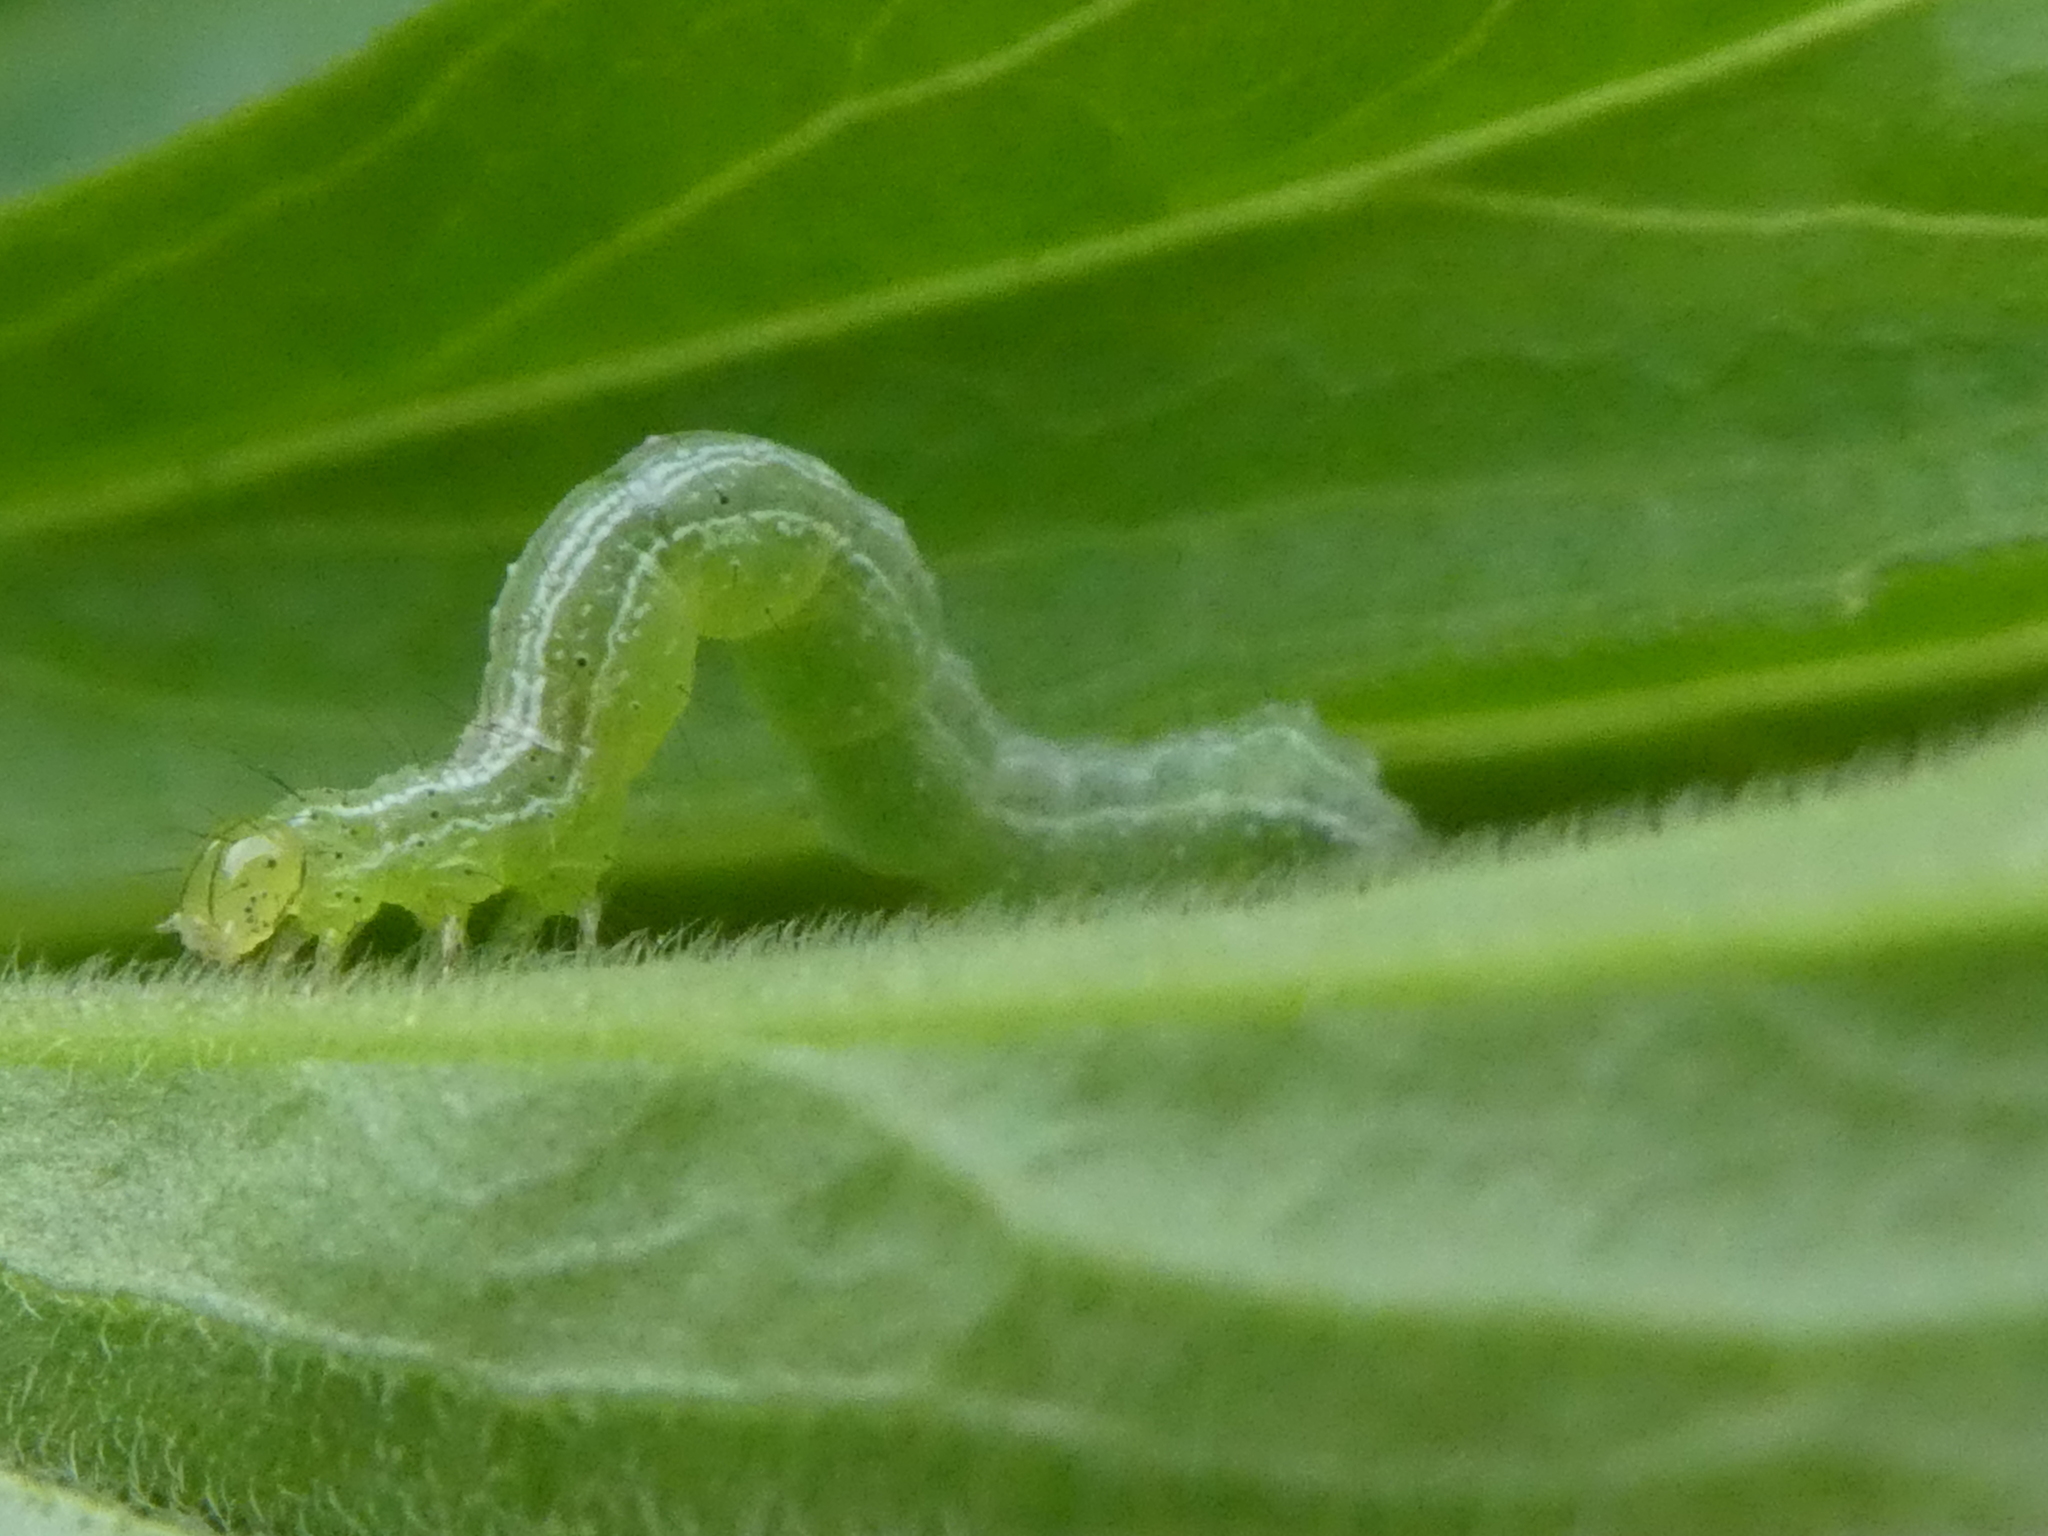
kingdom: Animalia
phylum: Arthropoda
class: Insecta
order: Lepidoptera
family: Noctuidae
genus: Ctenoplusia
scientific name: Ctenoplusia albostriata
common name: Moth
